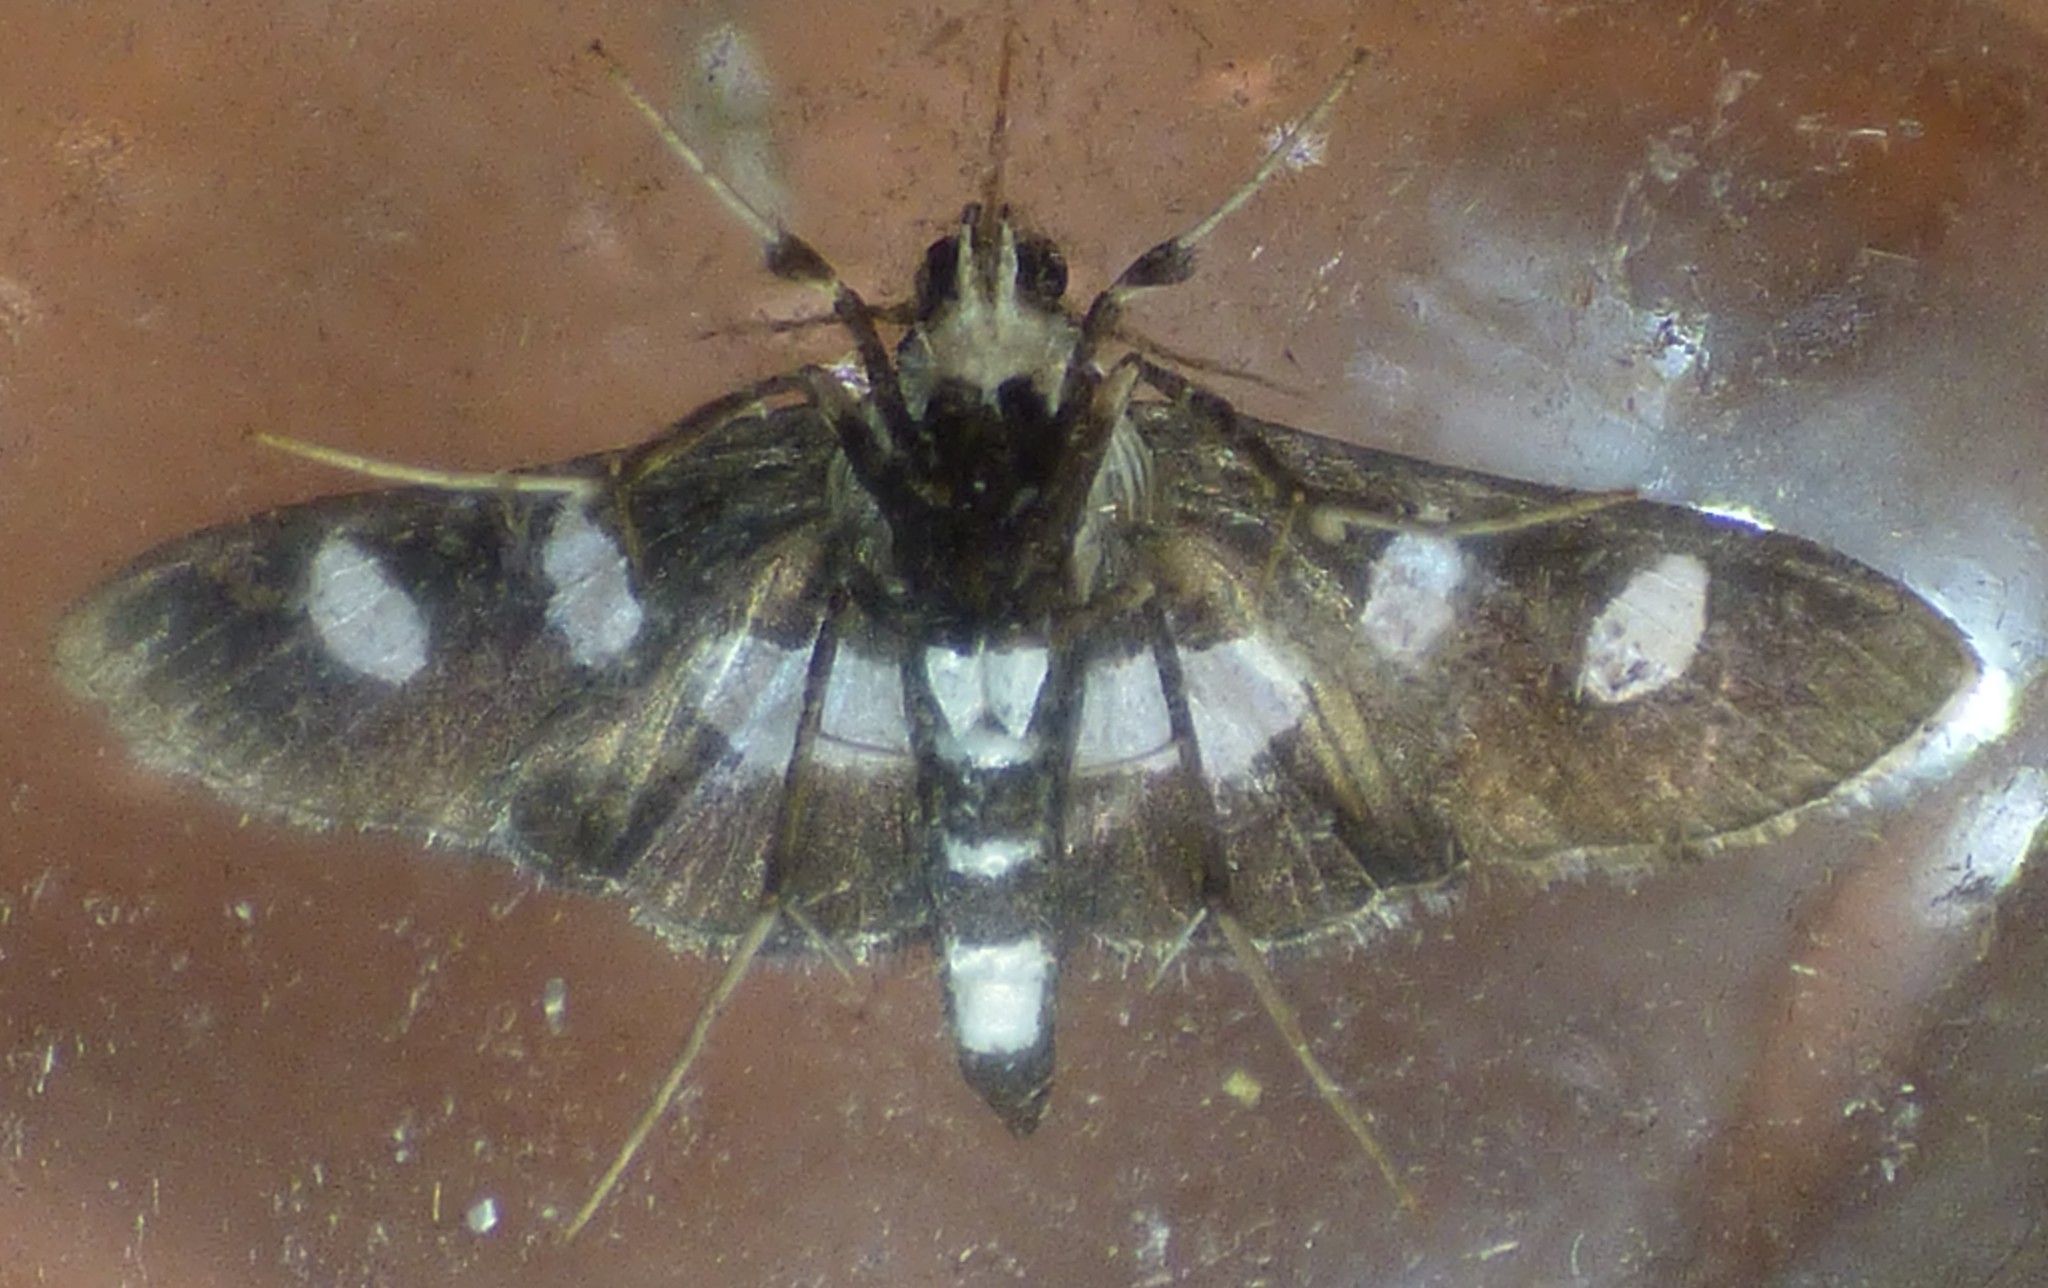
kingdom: Animalia
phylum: Arthropoda
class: Insecta
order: Lepidoptera
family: Crambidae
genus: Desmia
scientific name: Desmia funeralis
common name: Grape leaf folder moth
